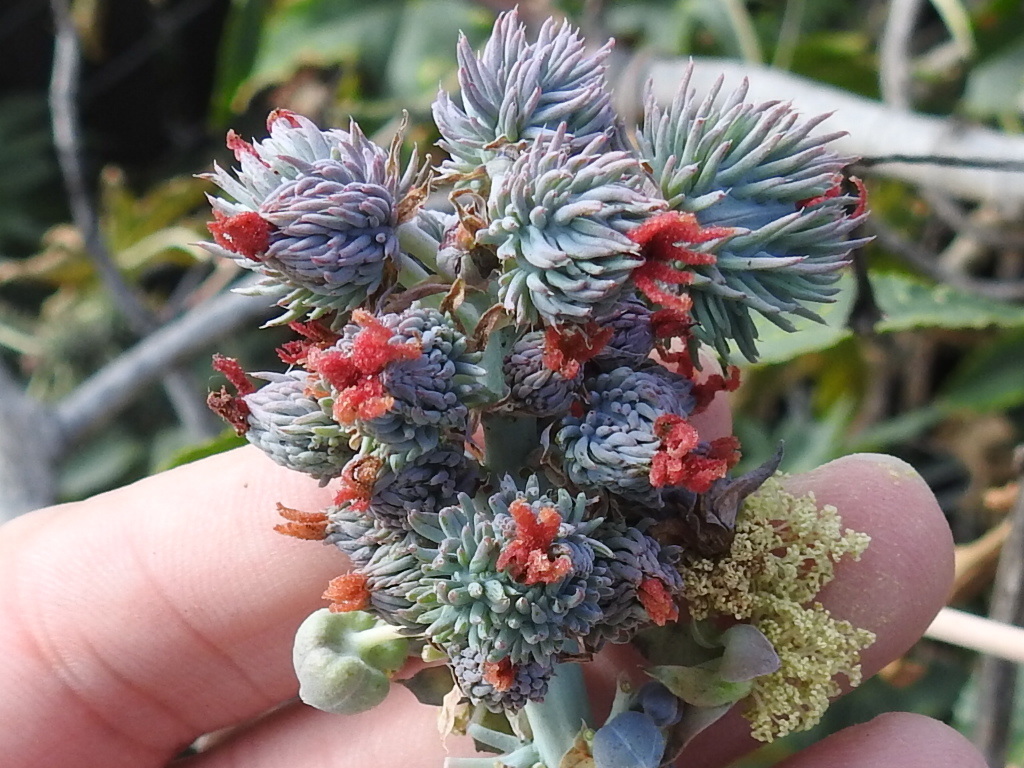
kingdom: Plantae
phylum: Tracheophyta
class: Magnoliopsida
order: Malpighiales
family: Euphorbiaceae
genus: Ricinus
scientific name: Ricinus communis
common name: Castor-oil-plant
